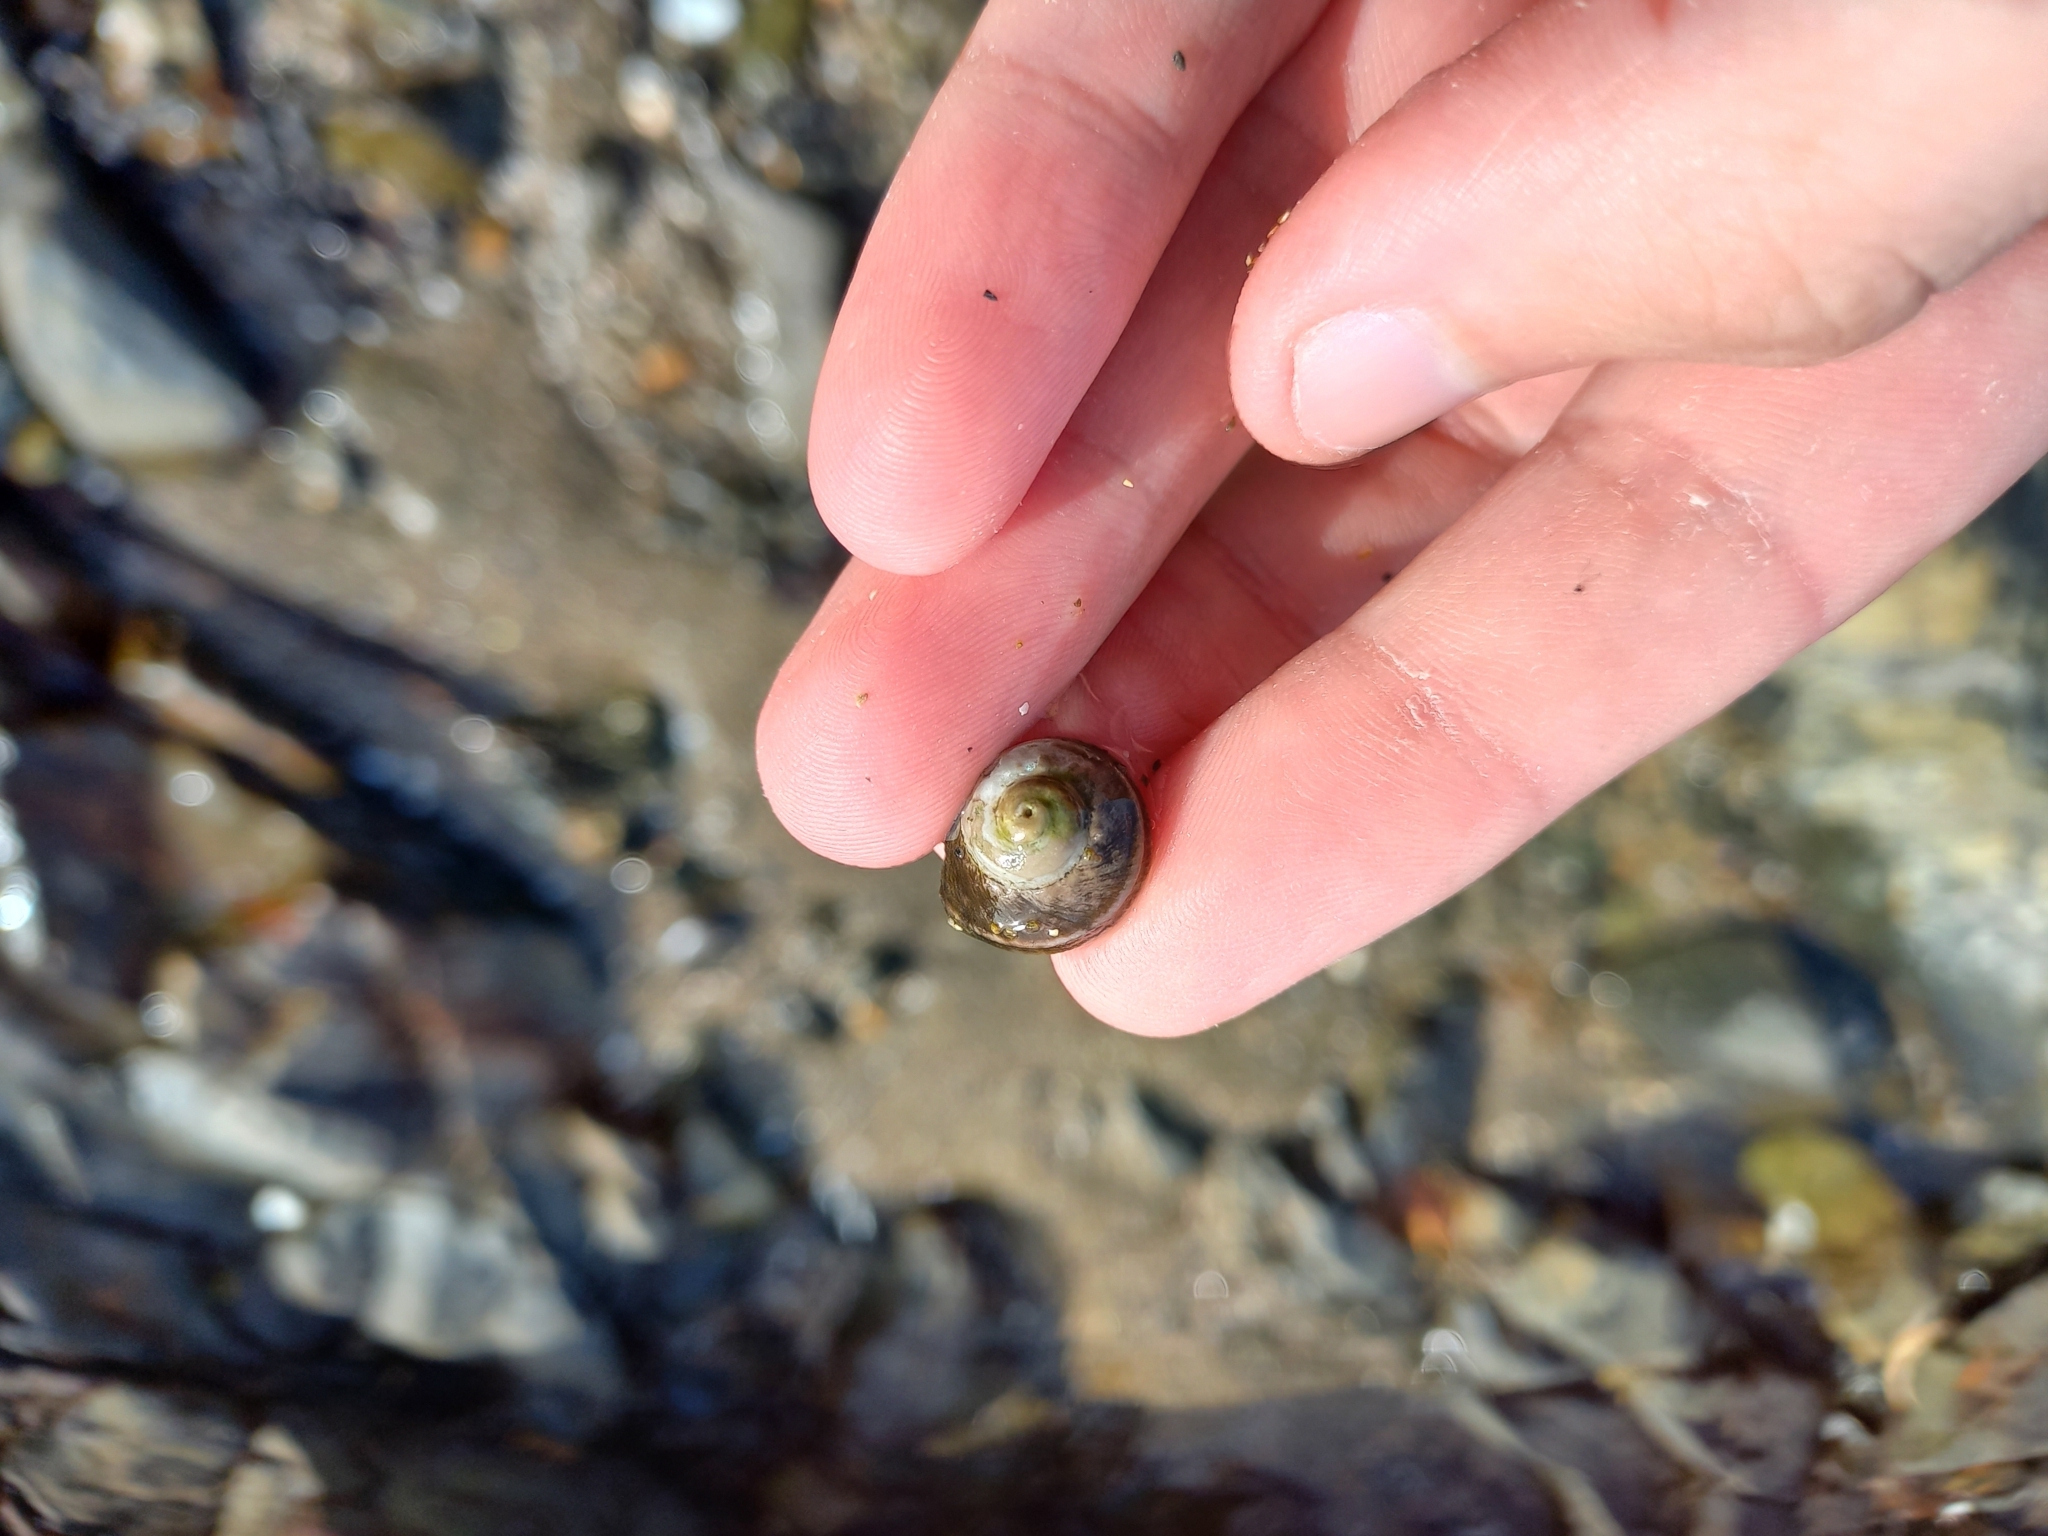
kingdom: Animalia
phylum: Mollusca
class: Gastropoda
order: Trochida
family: Turbinidae
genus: Lunella
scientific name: Lunella smaragda
